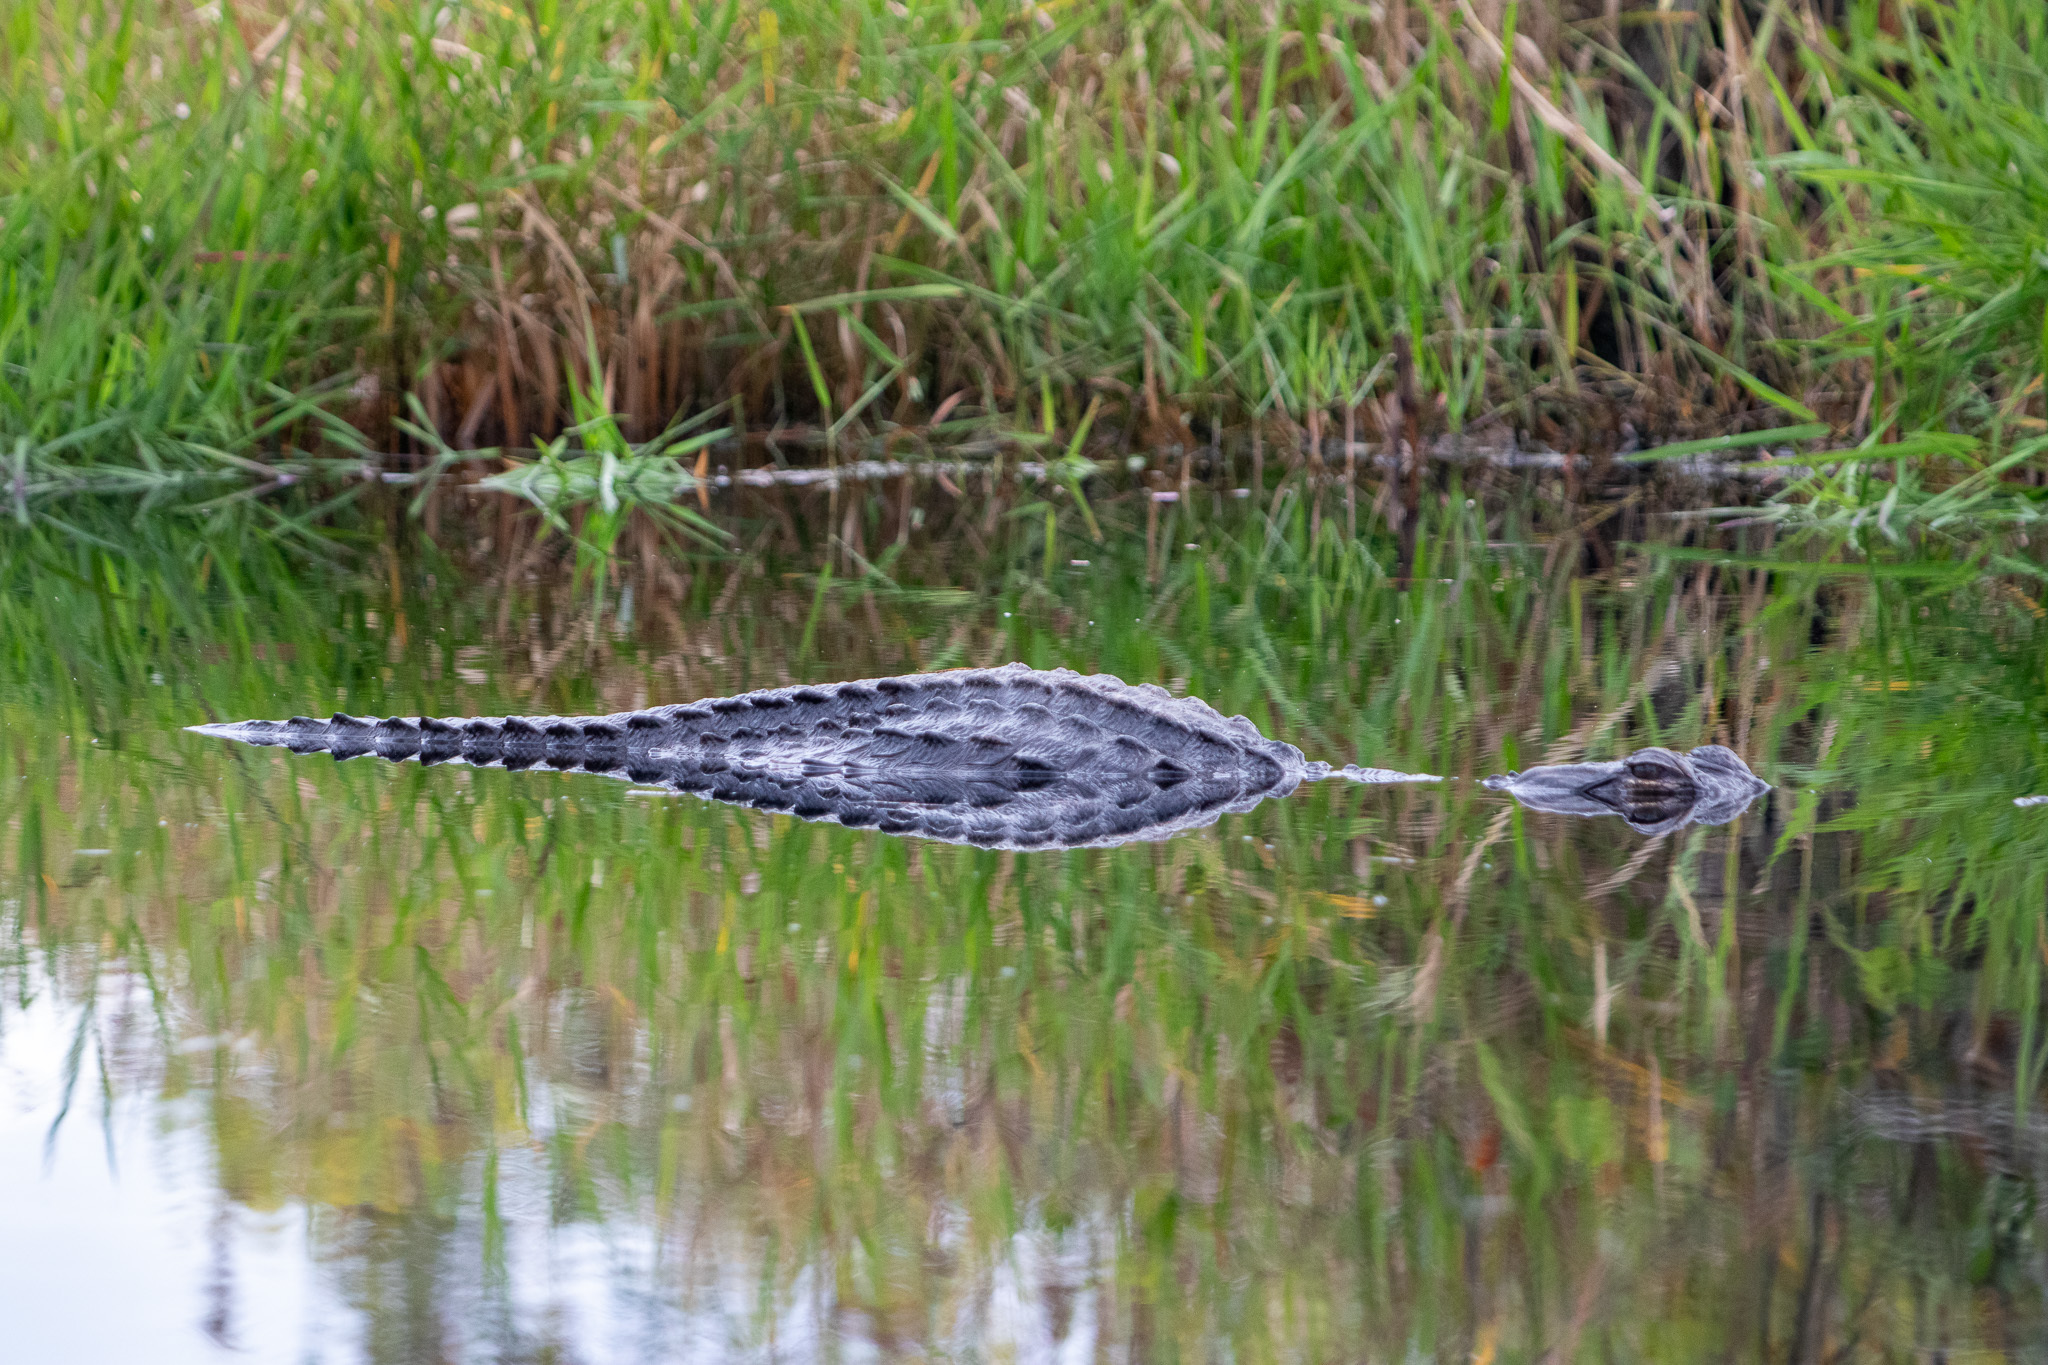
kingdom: Animalia
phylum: Chordata
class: Crocodylia
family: Alligatoridae
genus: Alligator
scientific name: Alligator mississippiensis
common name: American alligator
